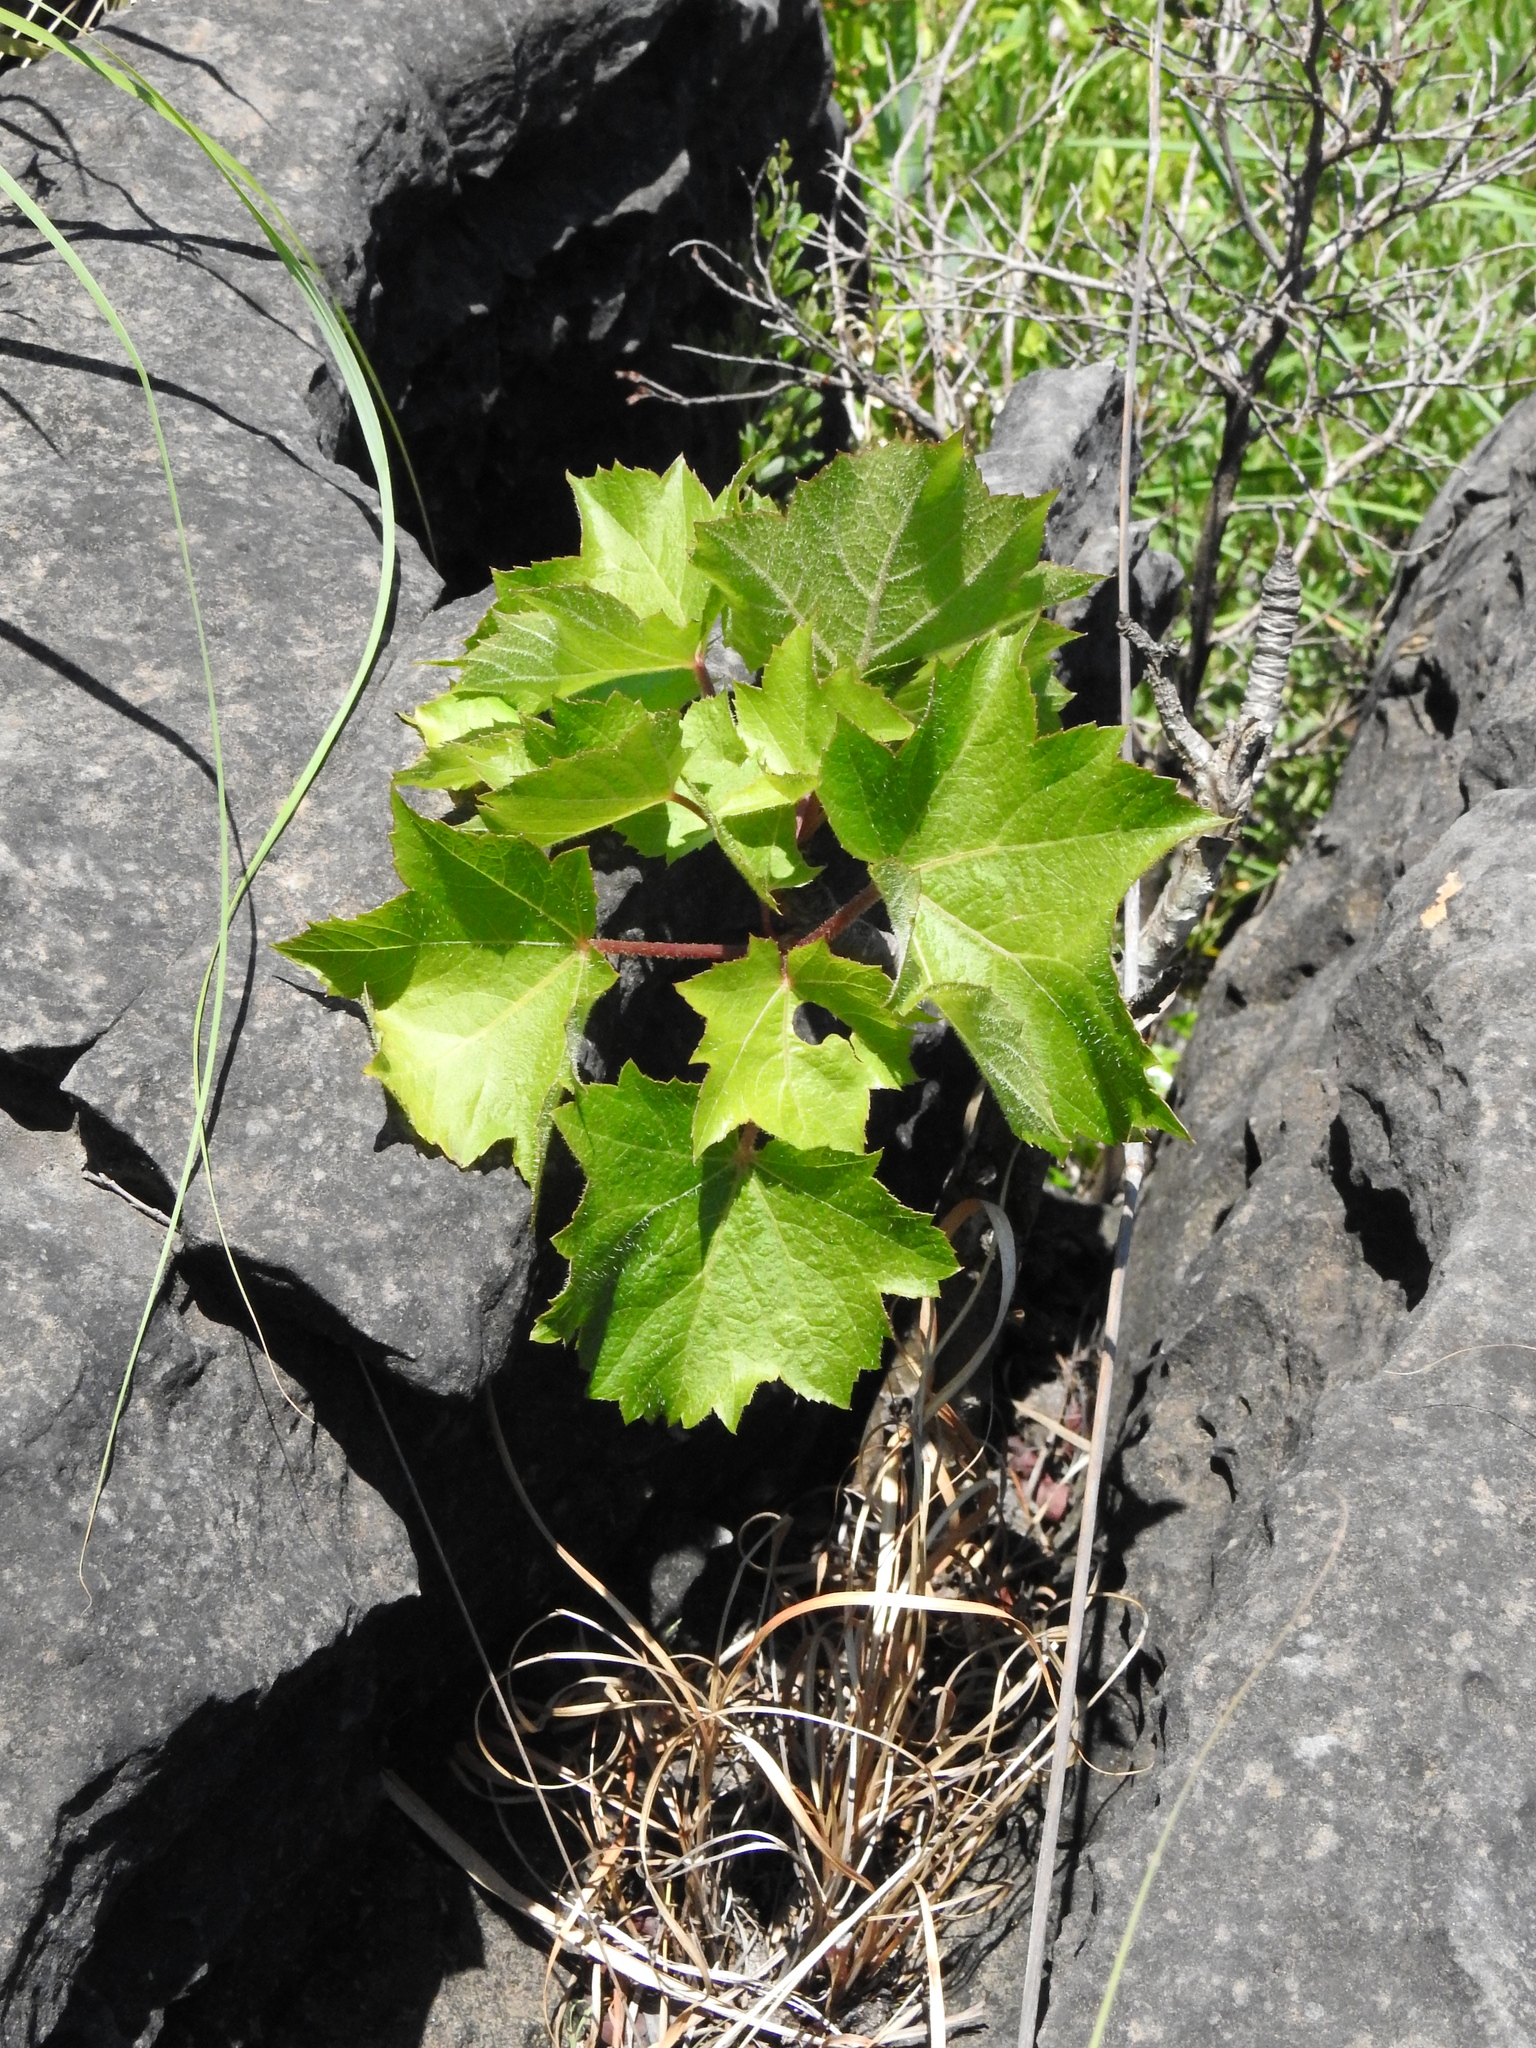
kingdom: Plantae
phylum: Tracheophyta
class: Magnoliopsida
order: Apiales
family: Araliaceae
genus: Seemannaralia
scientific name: Seemannaralia gerrardii
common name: Wild-maple
